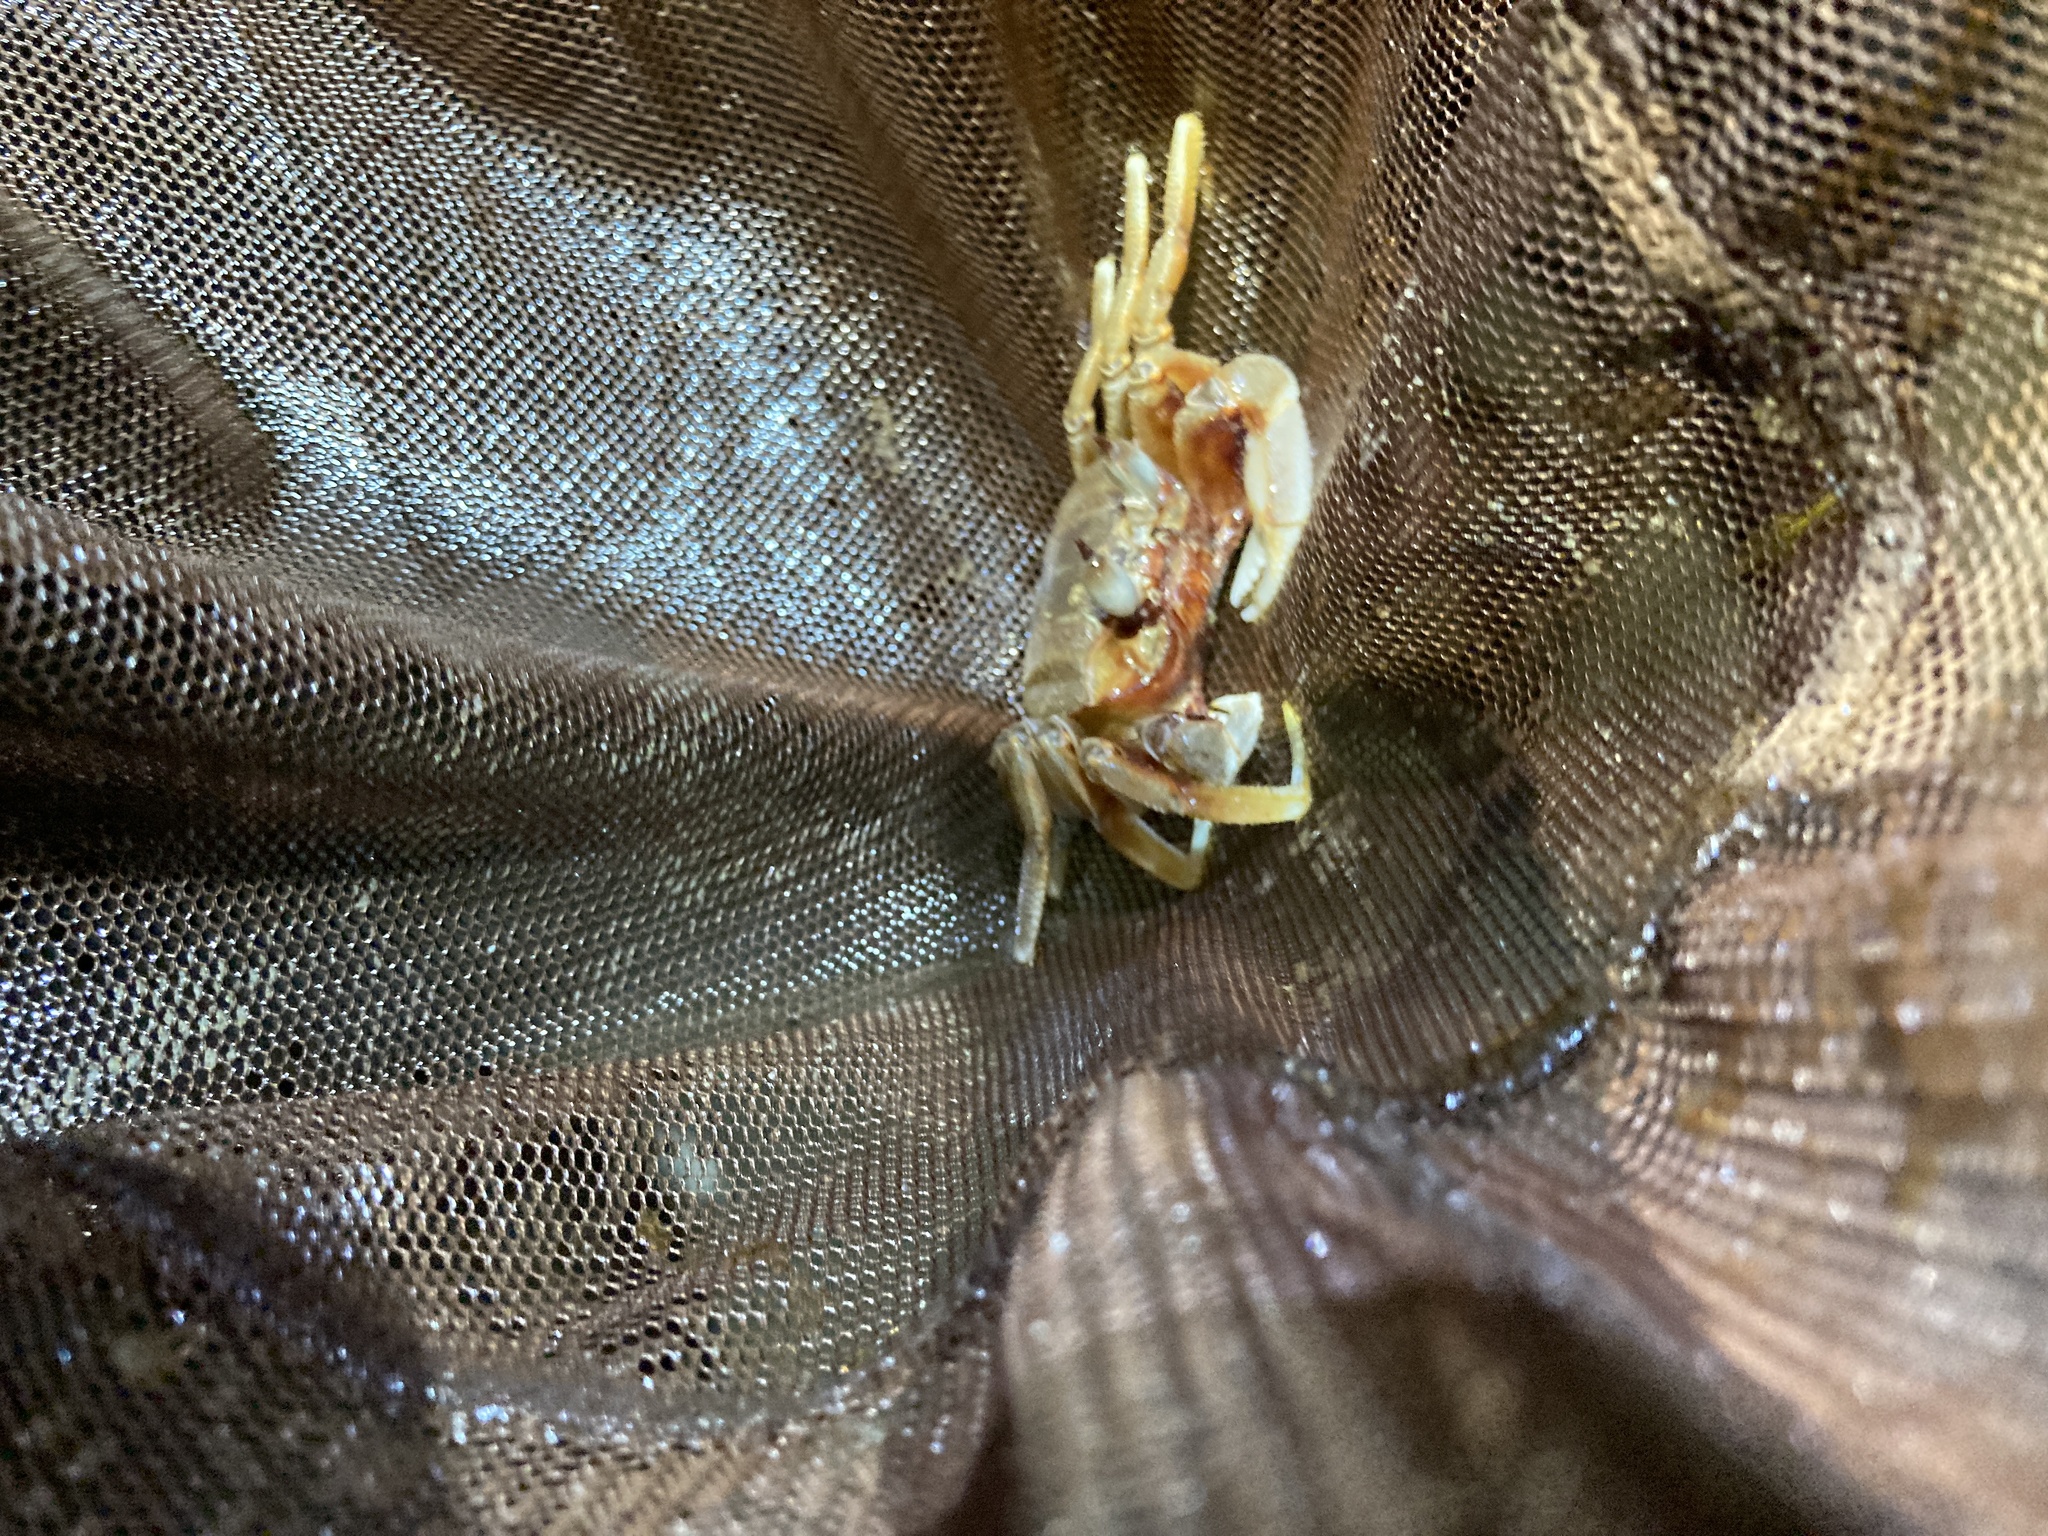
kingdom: Animalia
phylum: Arthropoda
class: Malacostraca
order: Decapoda
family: Ocypodidae
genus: Ocypode
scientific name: Ocypode ceratophthalmus
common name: Indo-pacific ghost crab
